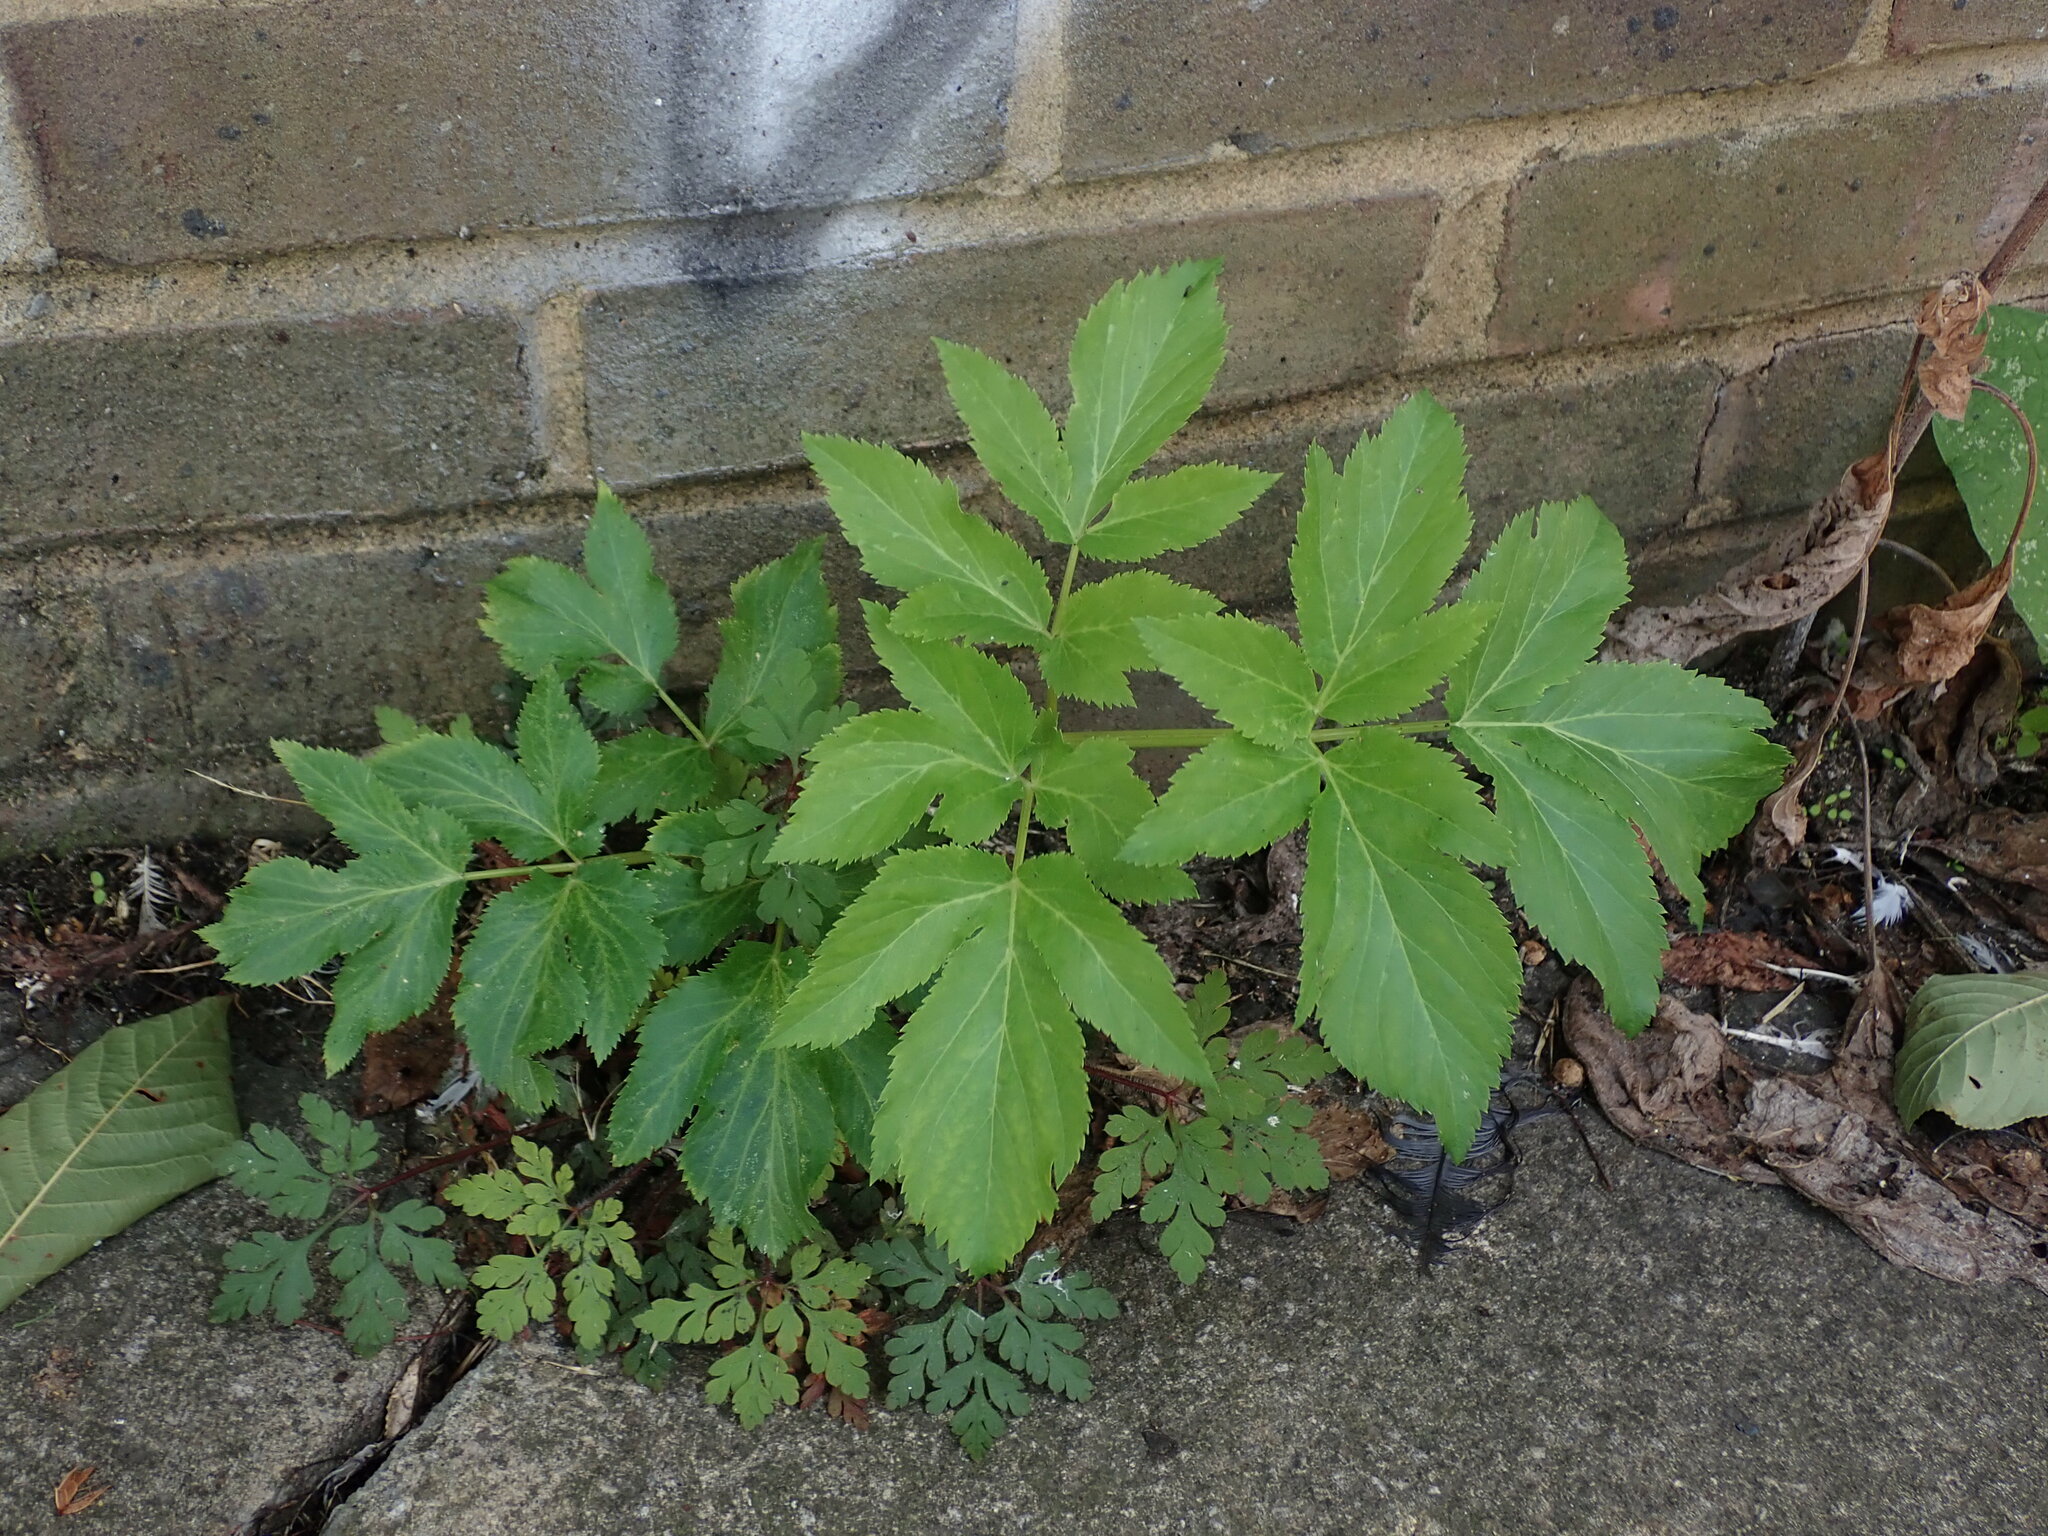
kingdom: Plantae
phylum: Tracheophyta
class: Magnoliopsida
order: Apiales
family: Apiaceae
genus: Angelica
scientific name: Angelica archangelica
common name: Garden angelica
